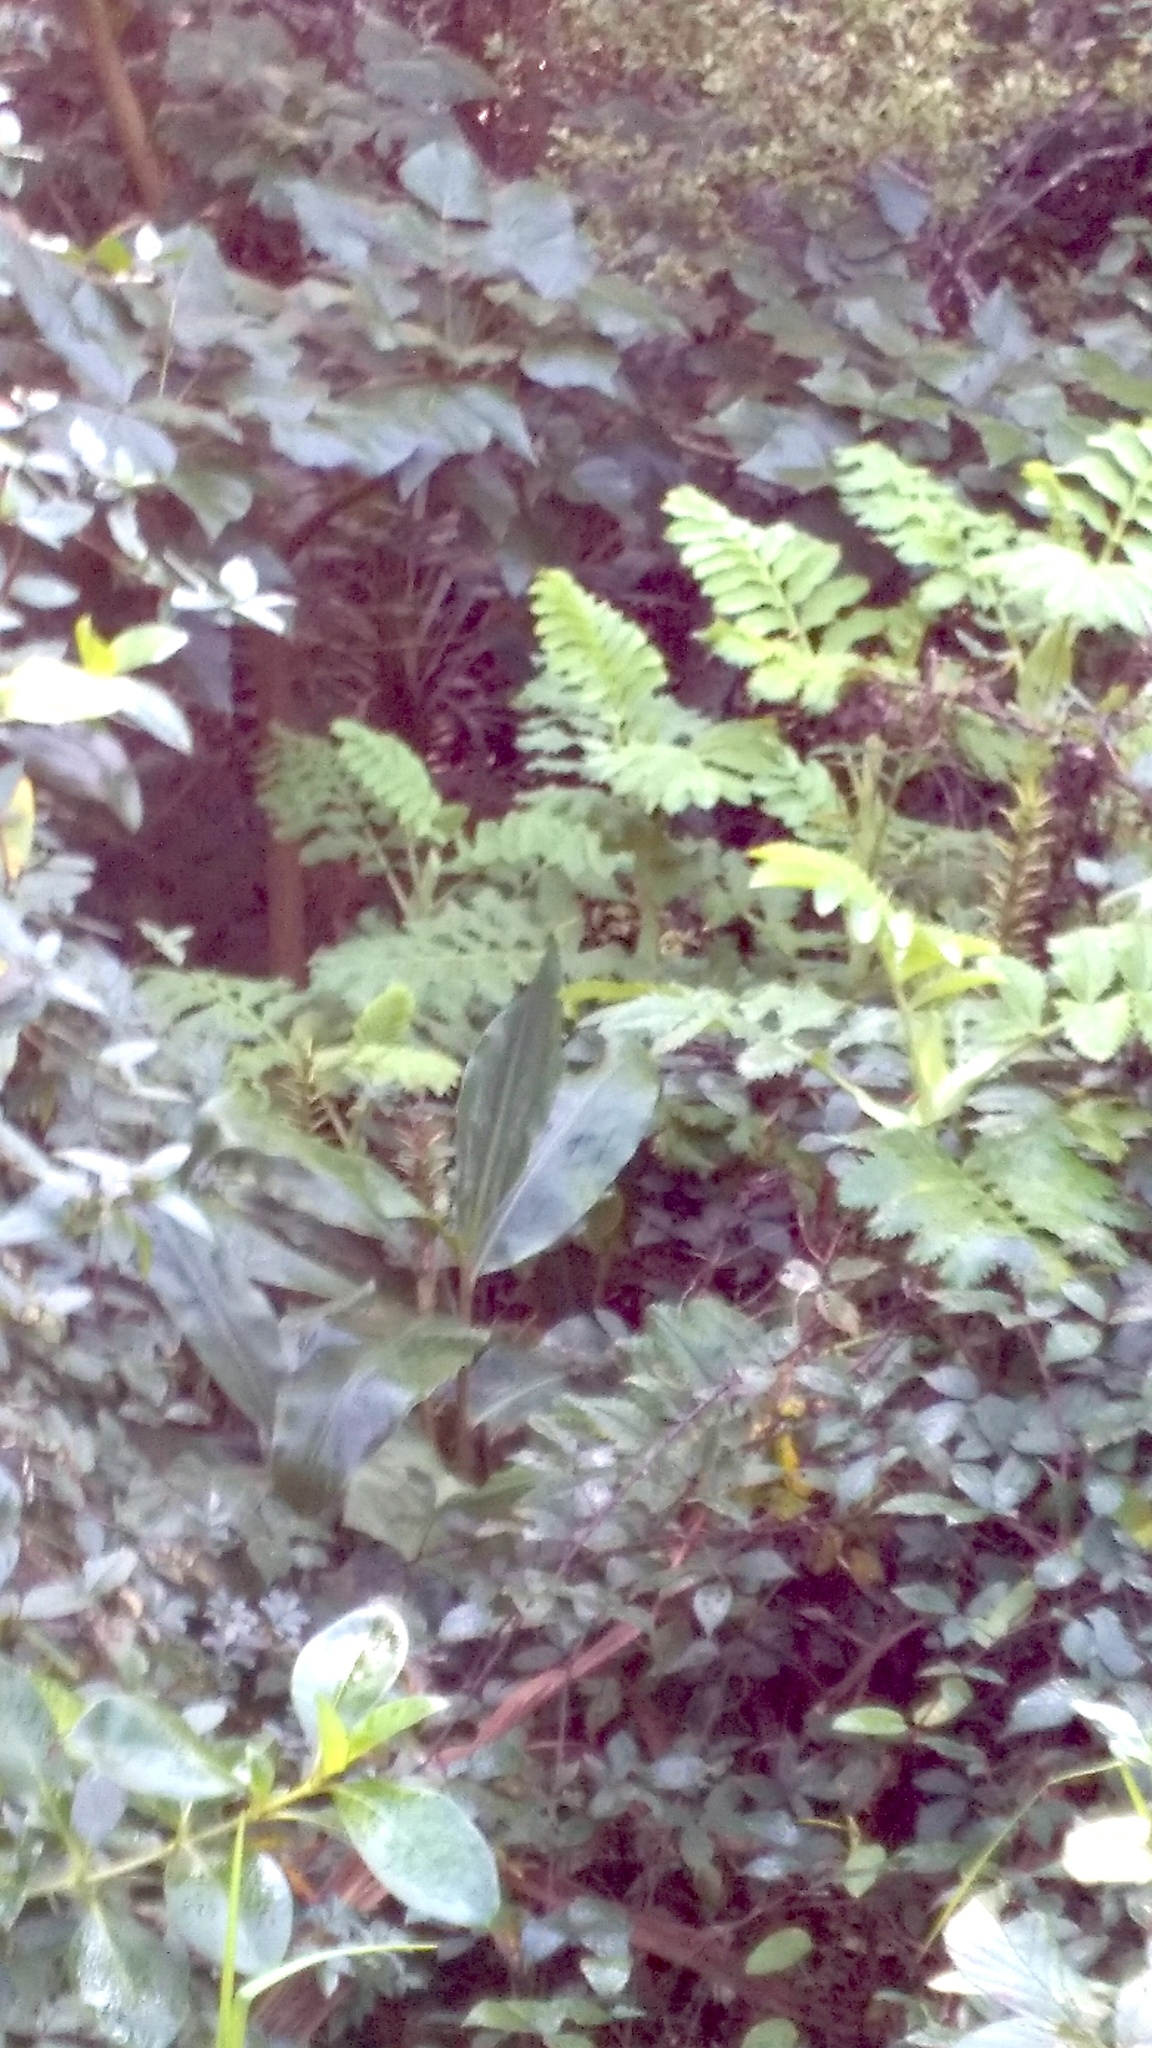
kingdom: Plantae
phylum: Tracheophyta
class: Liliopsida
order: Zingiberales
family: Zingiberaceae
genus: Hedychium
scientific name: Hedychium gardnerianum
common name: Himalayan ginger
